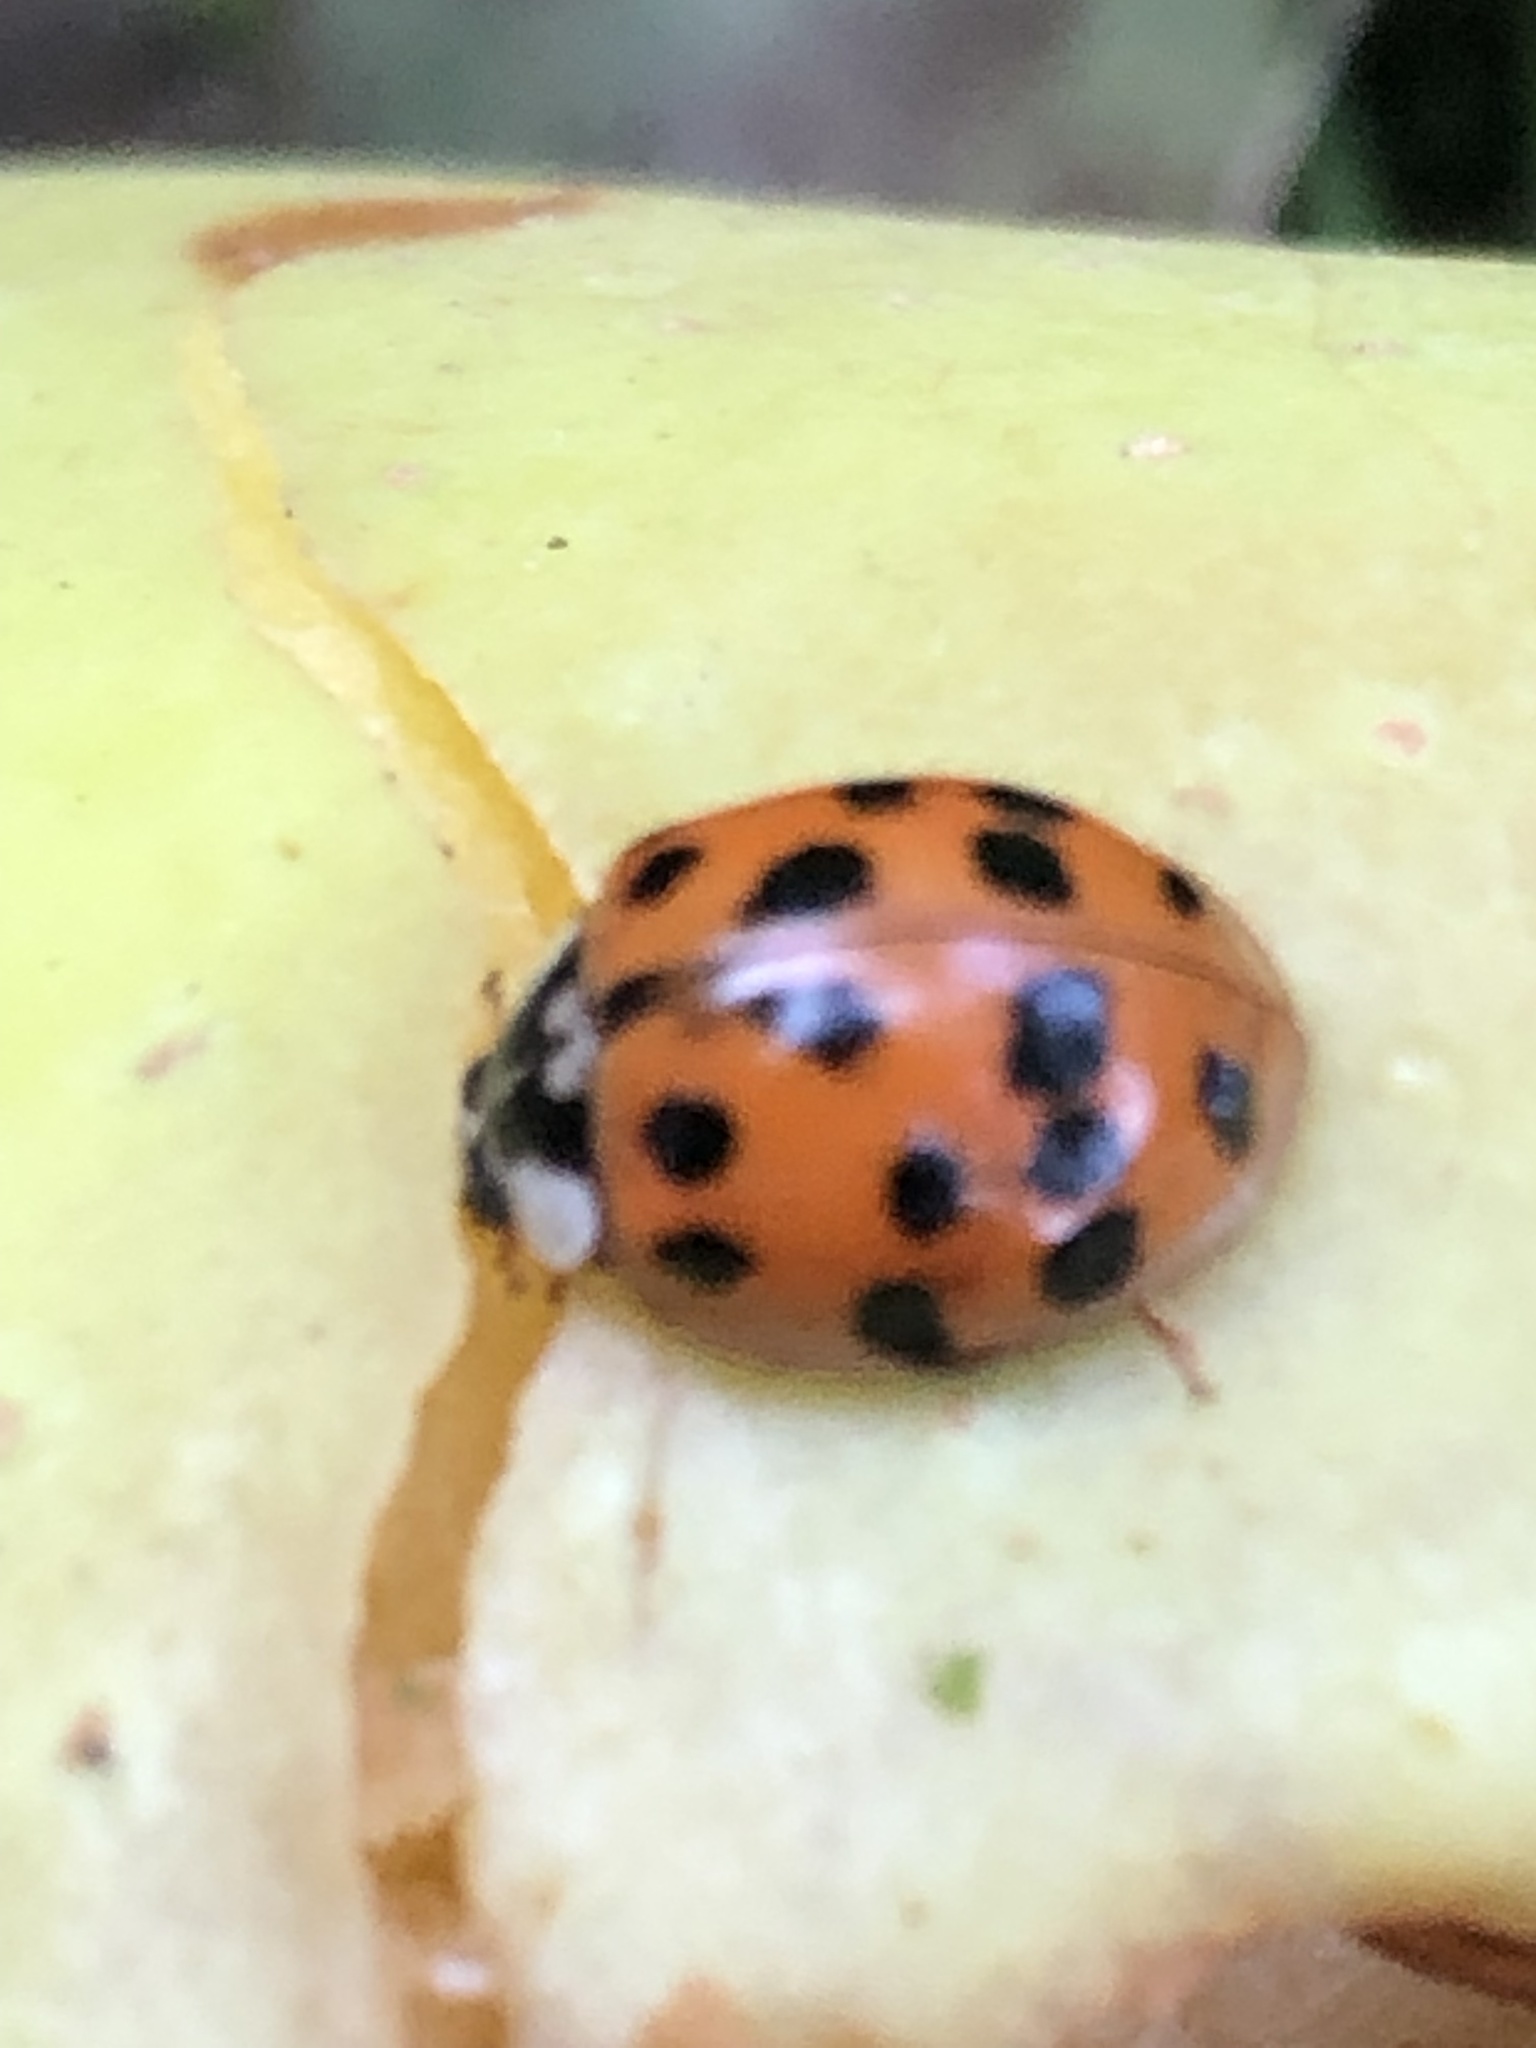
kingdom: Animalia
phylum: Arthropoda
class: Insecta
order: Coleoptera
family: Coccinellidae
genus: Harmonia
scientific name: Harmonia axyridis
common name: Harlequin ladybird
